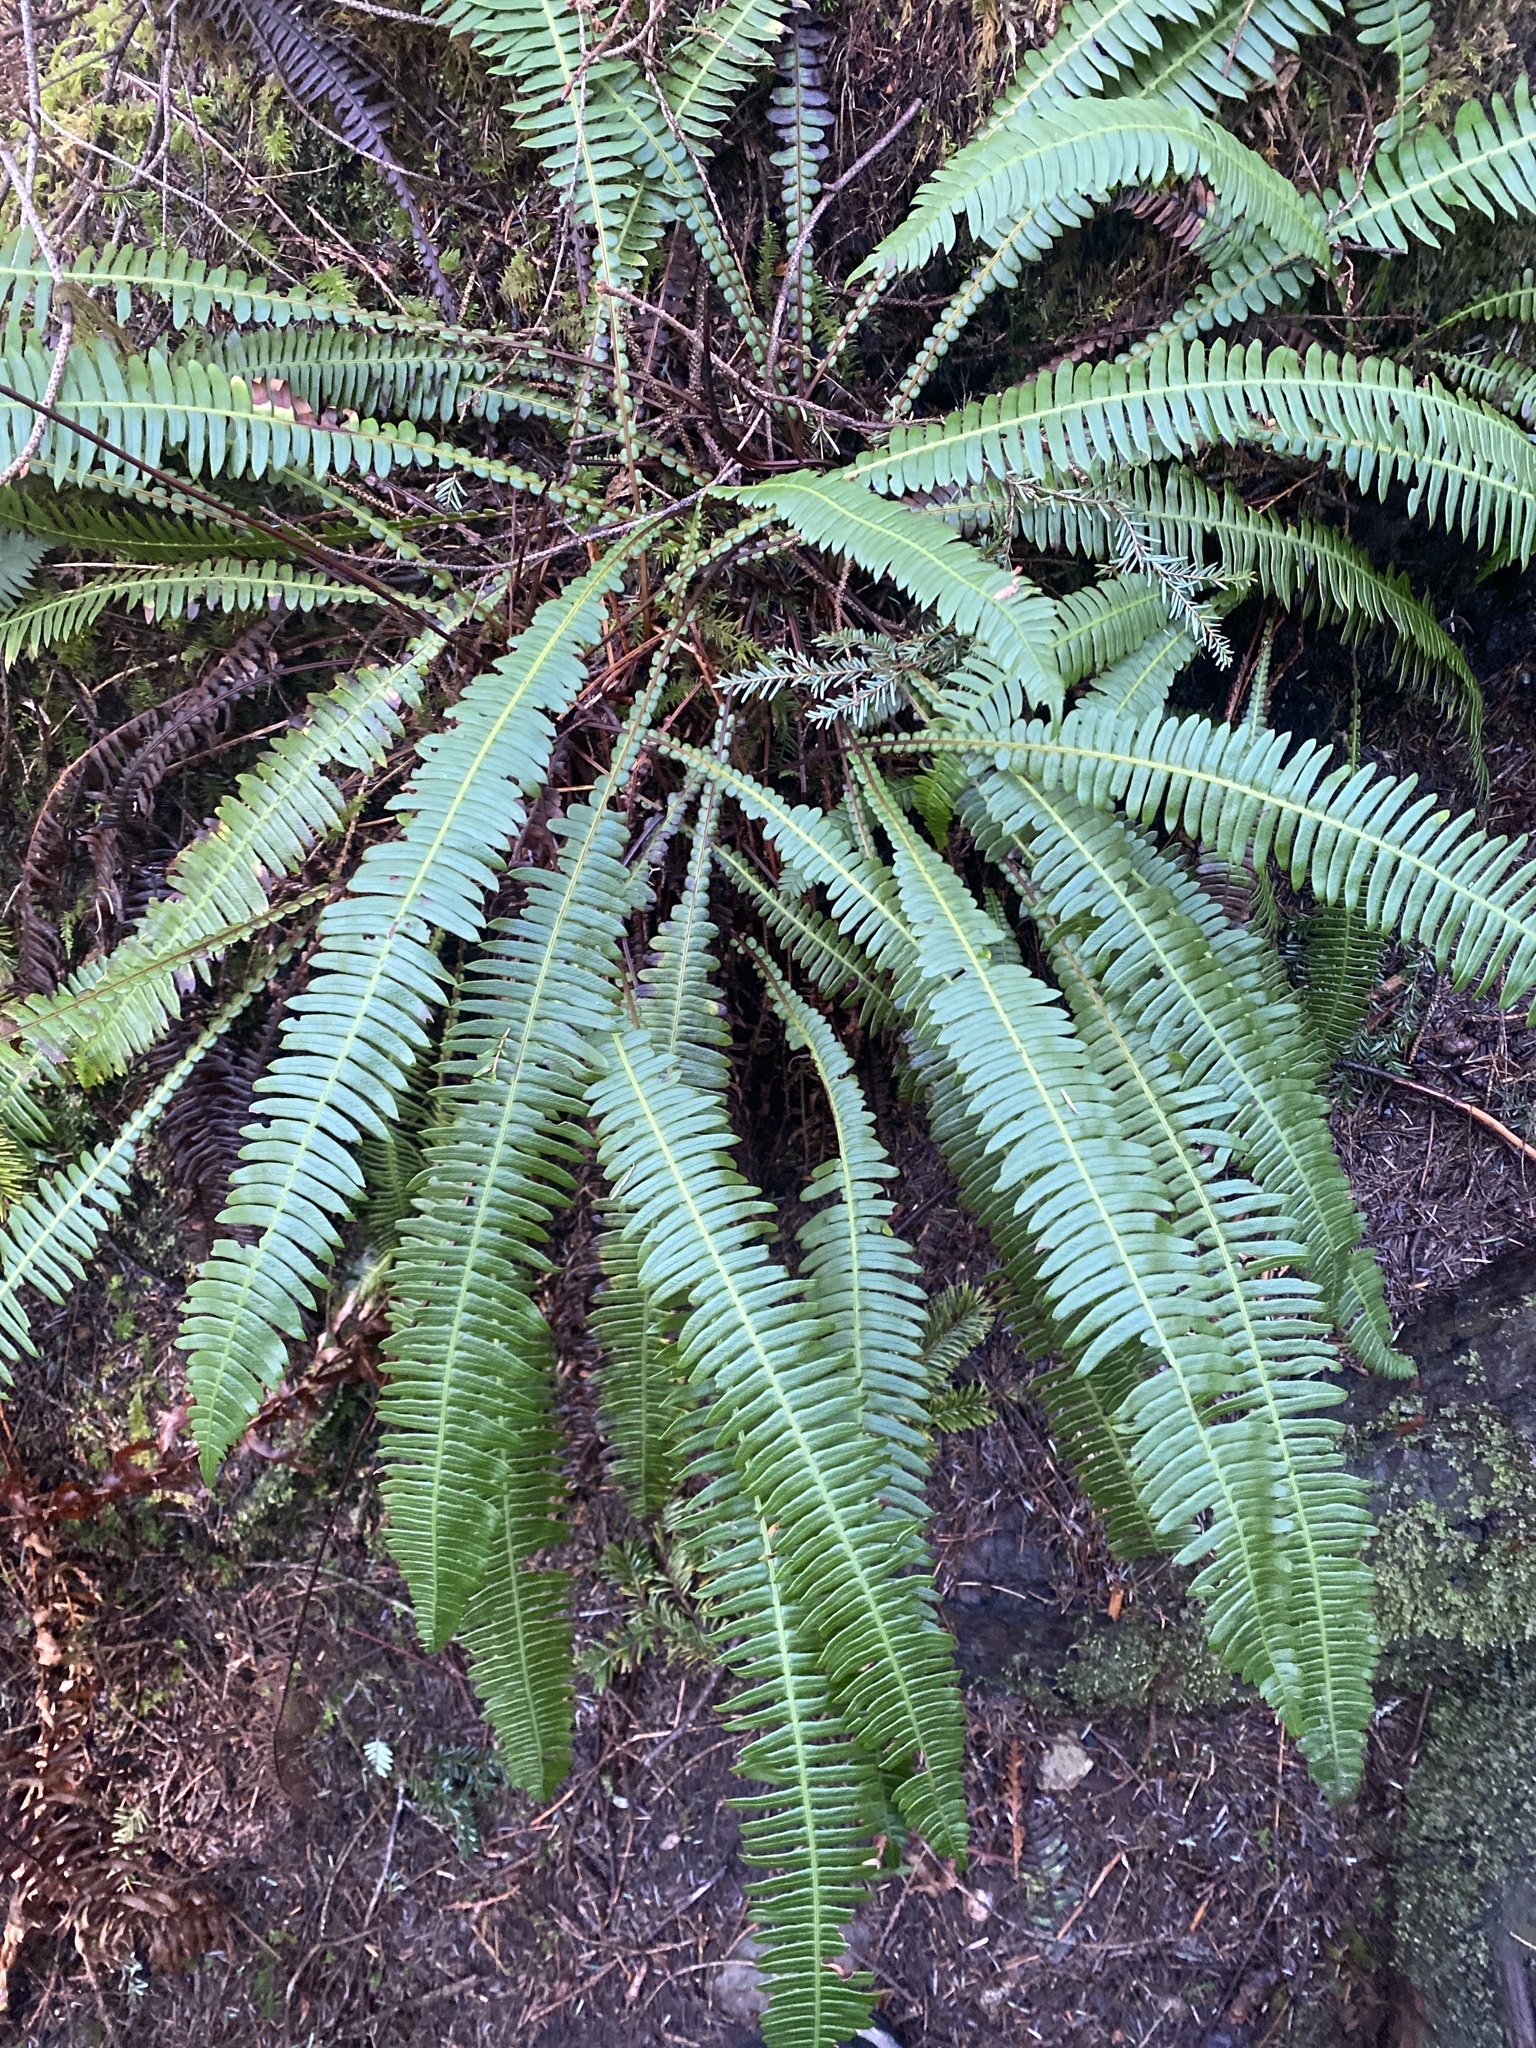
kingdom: Plantae
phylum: Tracheophyta
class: Polypodiopsida
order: Polypodiales
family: Blechnaceae
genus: Struthiopteris
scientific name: Struthiopteris spicant
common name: Deer fern
